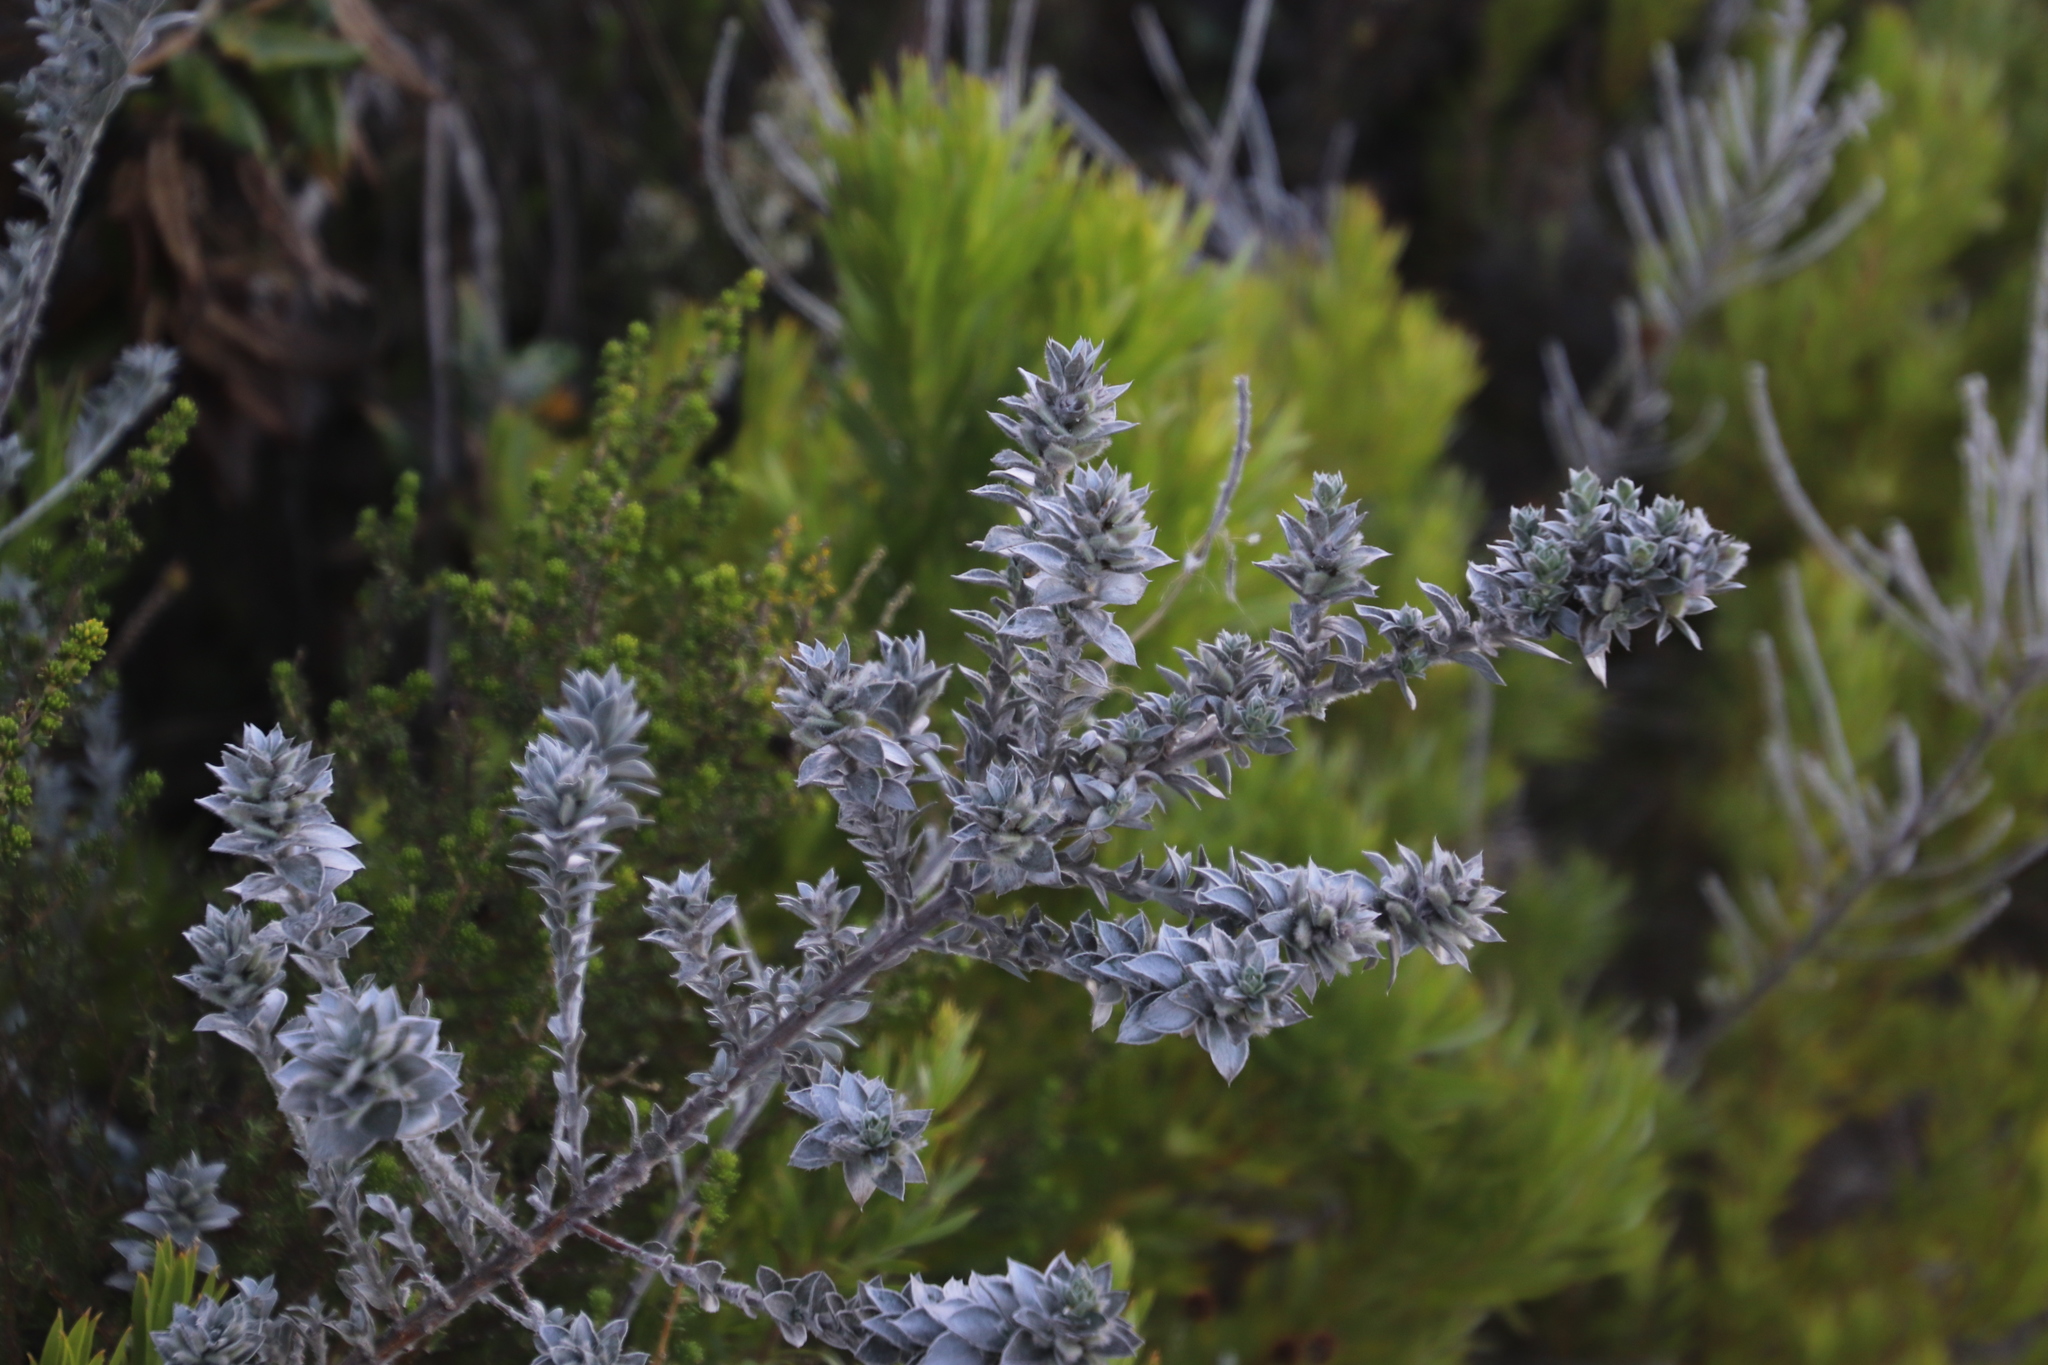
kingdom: Plantae
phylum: Tracheophyta
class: Magnoliopsida
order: Fabales
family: Fabaceae
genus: Amphithalea
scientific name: Amphithalea imbricata
